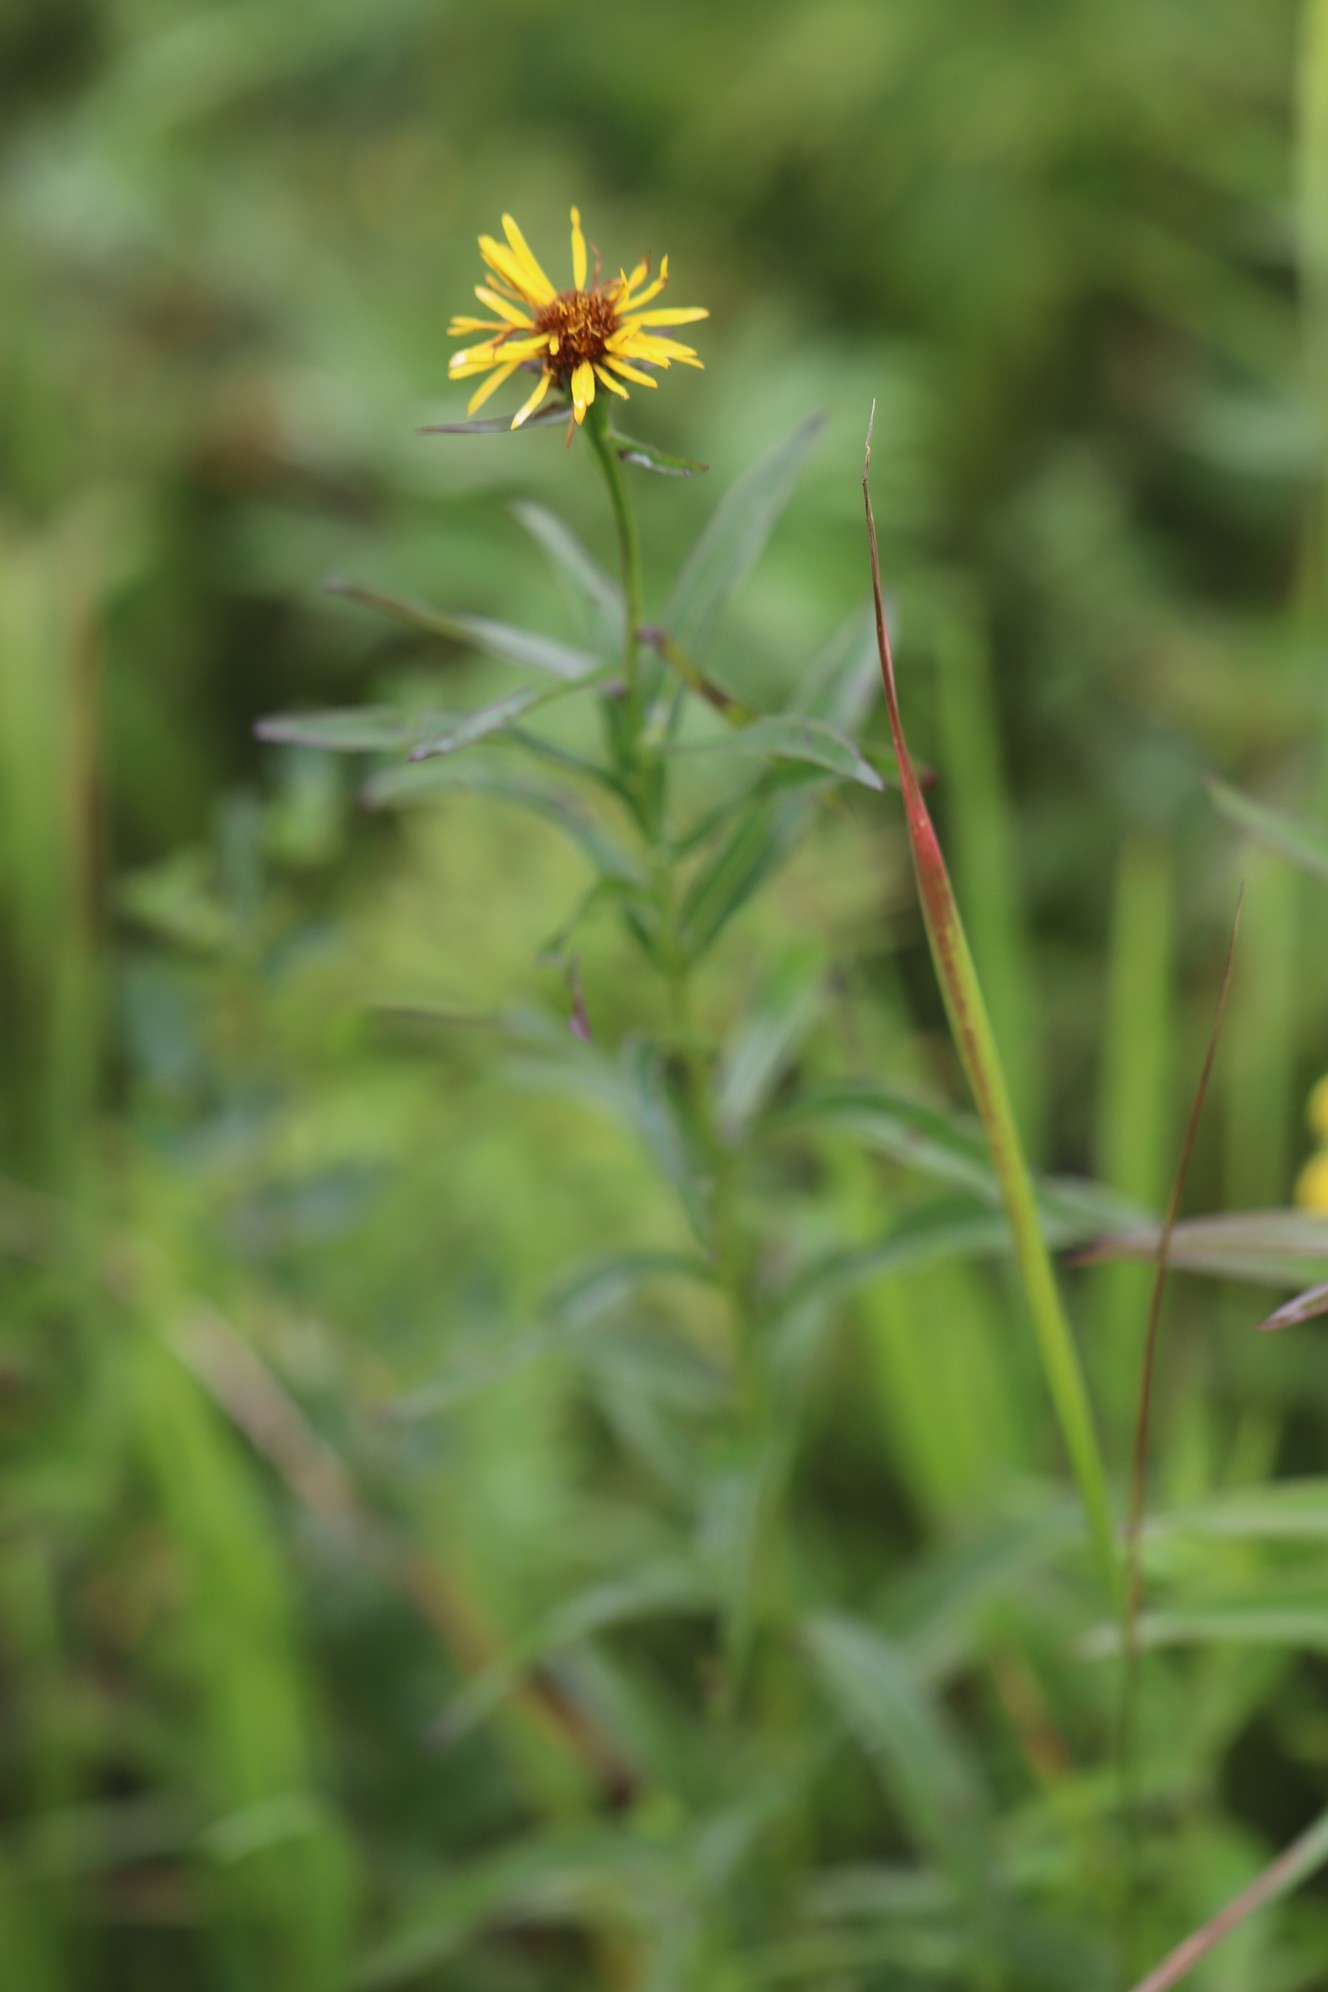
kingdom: Plantae
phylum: Tracheophyta
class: Magnoliopsida
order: Asterales
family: Asteraceae
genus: Pentanema
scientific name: Pentanema salicinum
